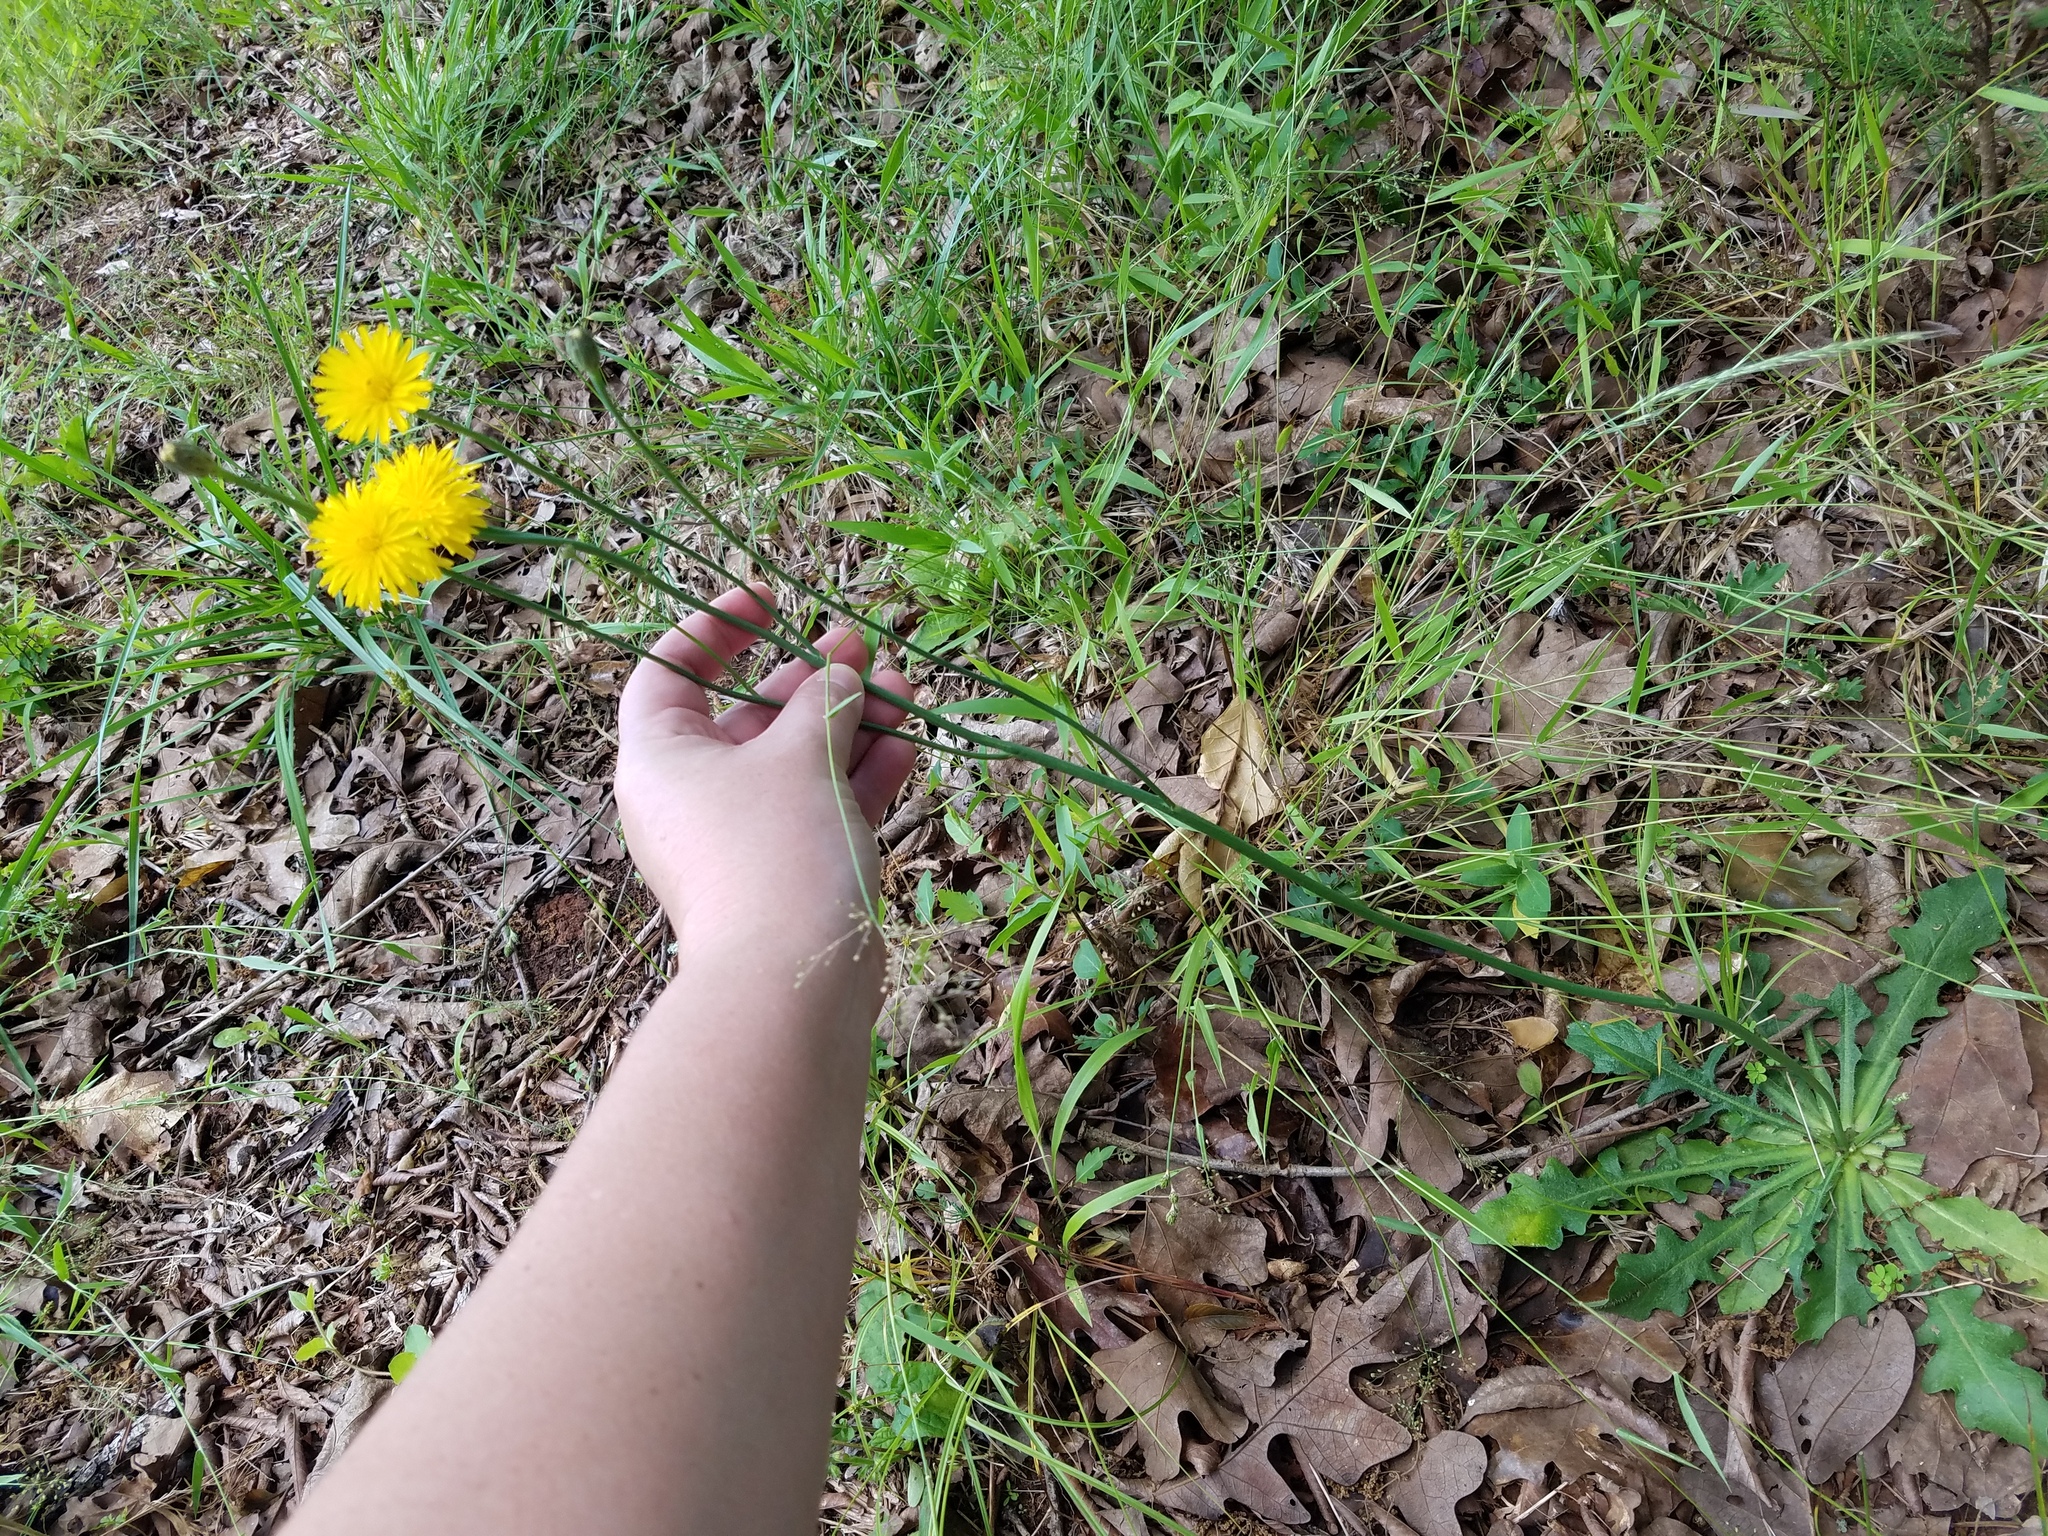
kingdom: Plantae
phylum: Tracheophyta
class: Magnoliopsida
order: Asterales
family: Asteraceae
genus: Hypochaeris
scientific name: Hypochaeris radicata
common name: Flatweed
